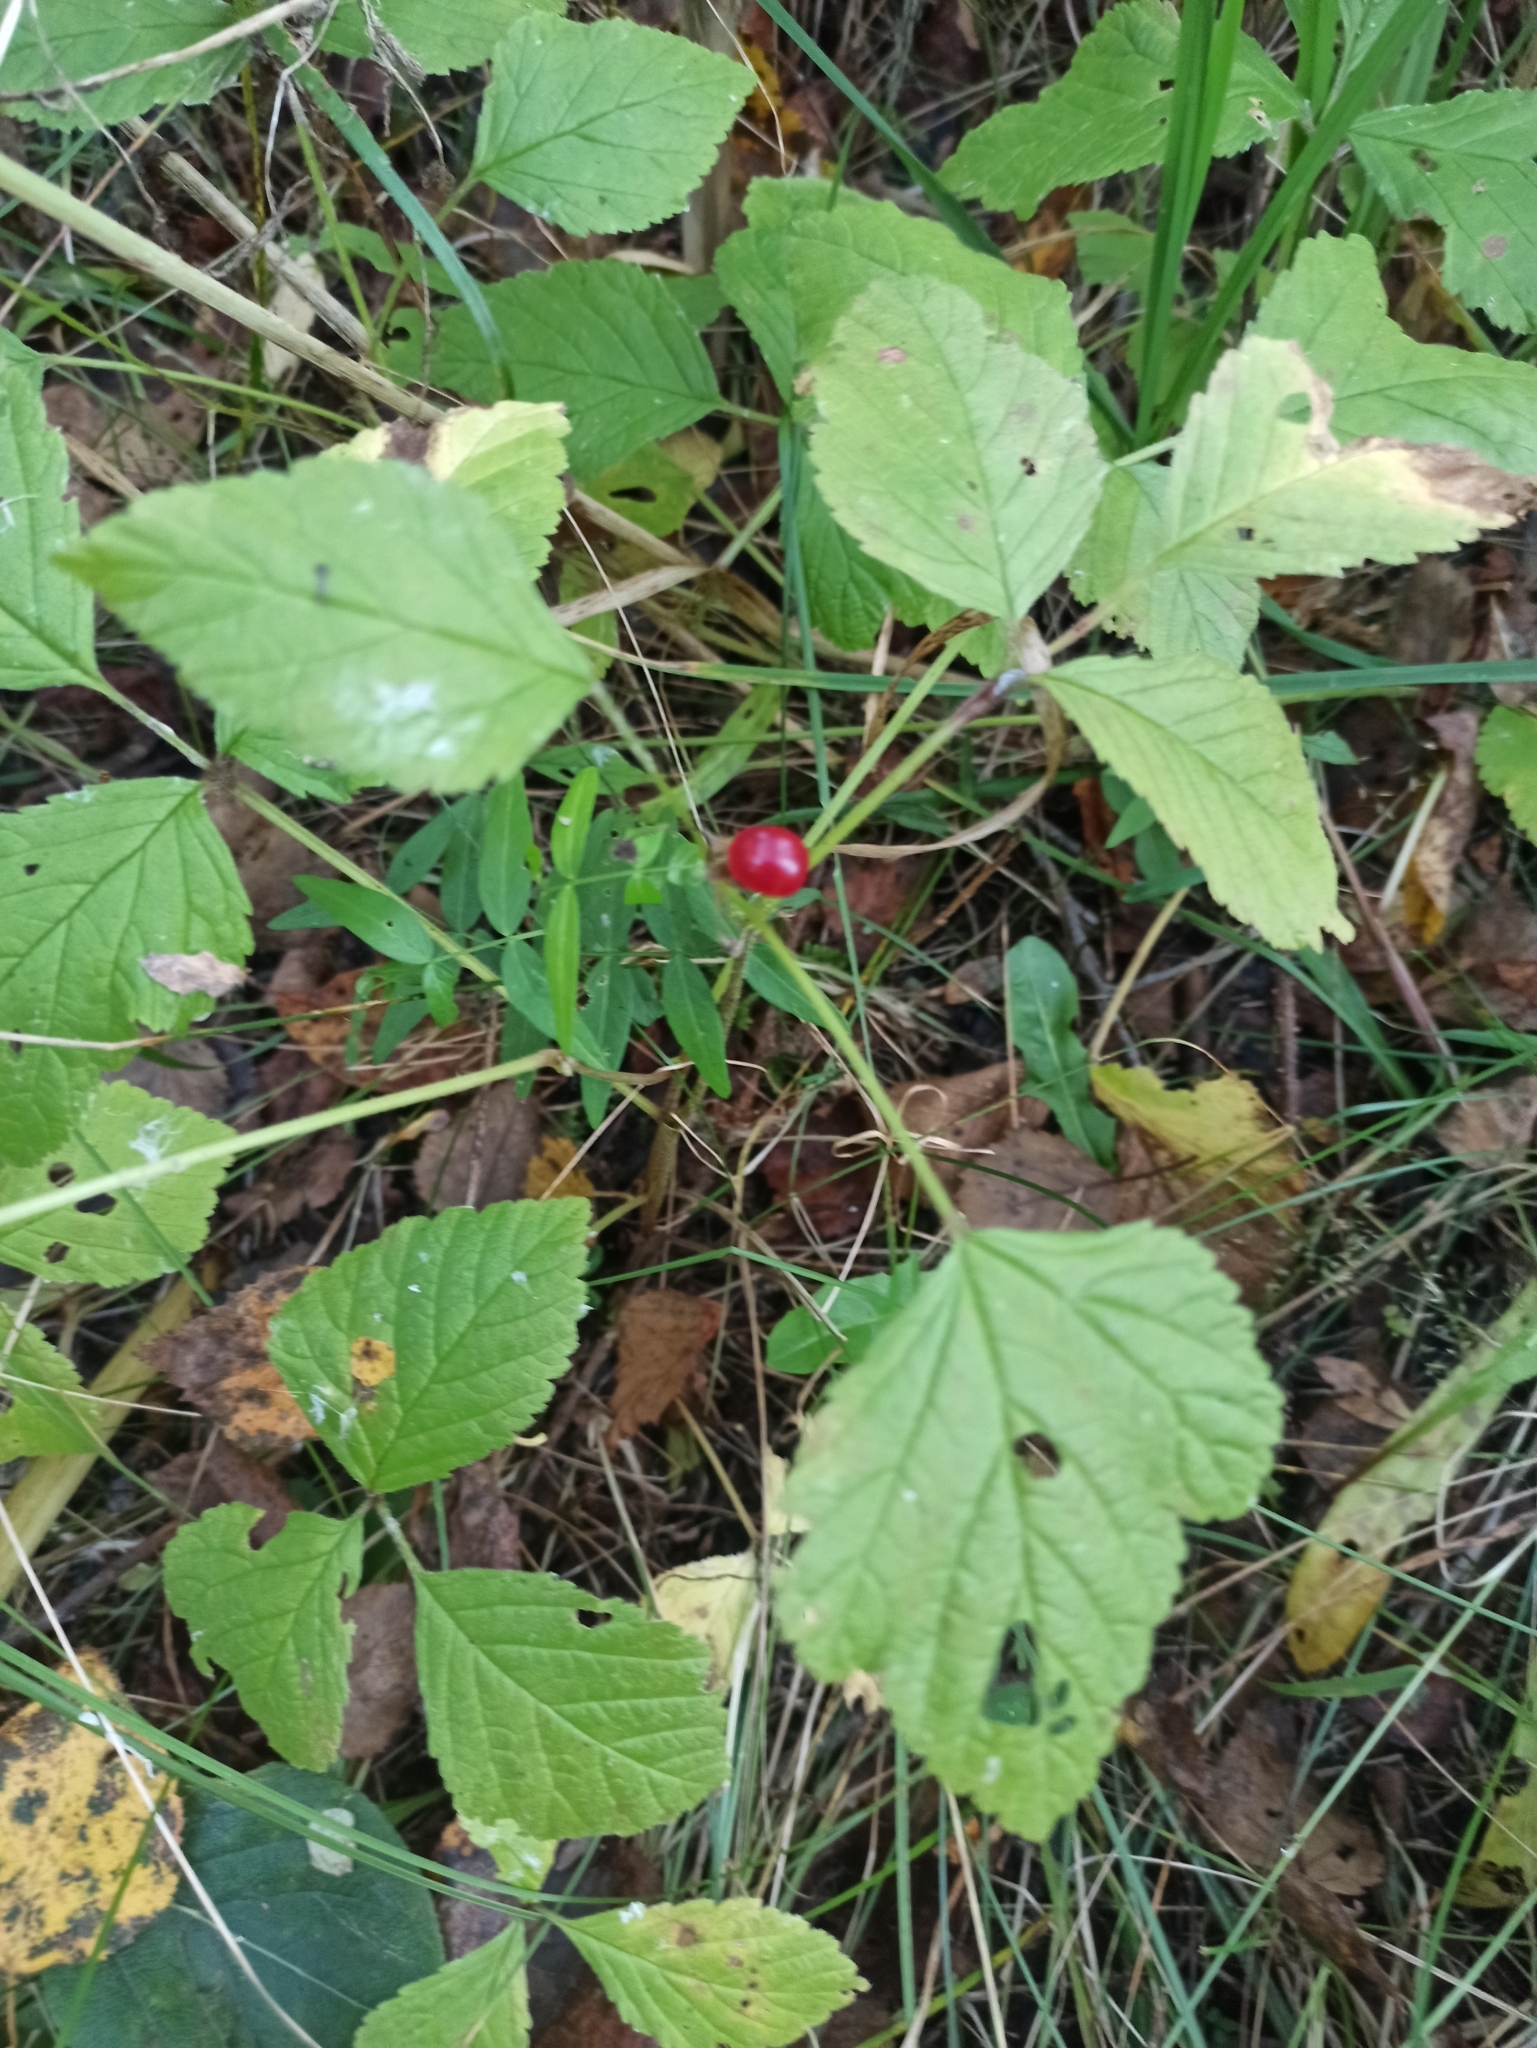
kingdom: Plantae
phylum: Tracheophyta
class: Magnoliopsida
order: Rosales
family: Rosaceae
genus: Rubus
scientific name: Rubus saxatilis
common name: Stone bramble
